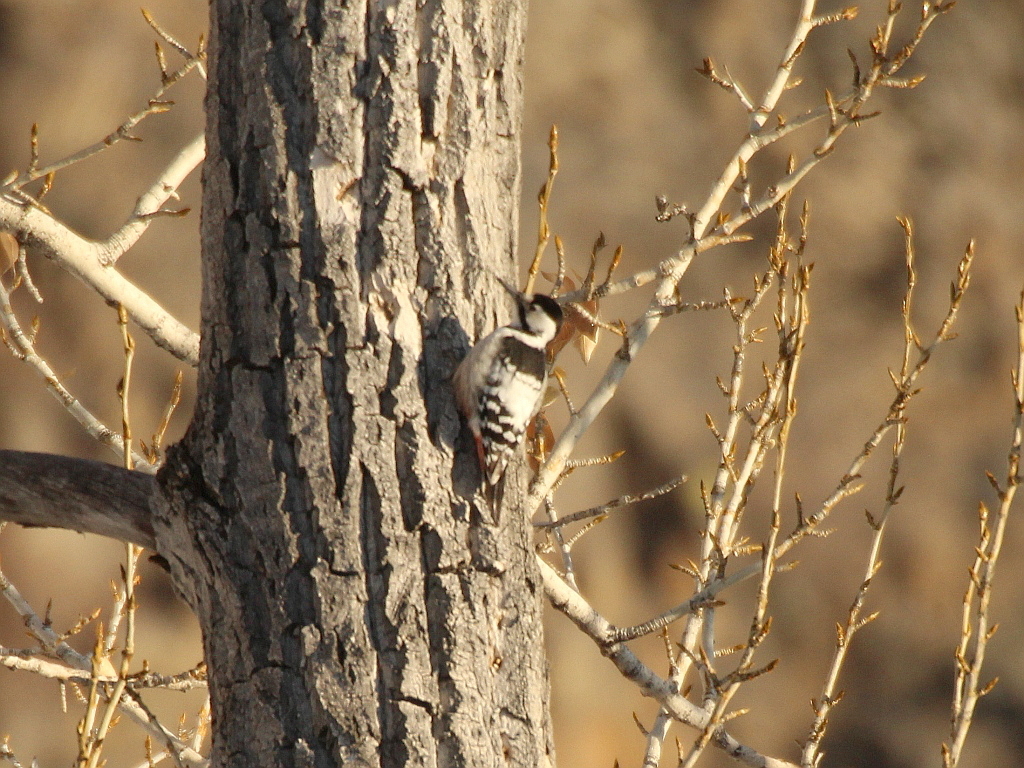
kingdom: Animalia
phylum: Chordata
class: Aves
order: Piciformes
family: Picidae
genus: Dendrocopos
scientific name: Dendrocopos leucotos
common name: White-backed woodpecker
